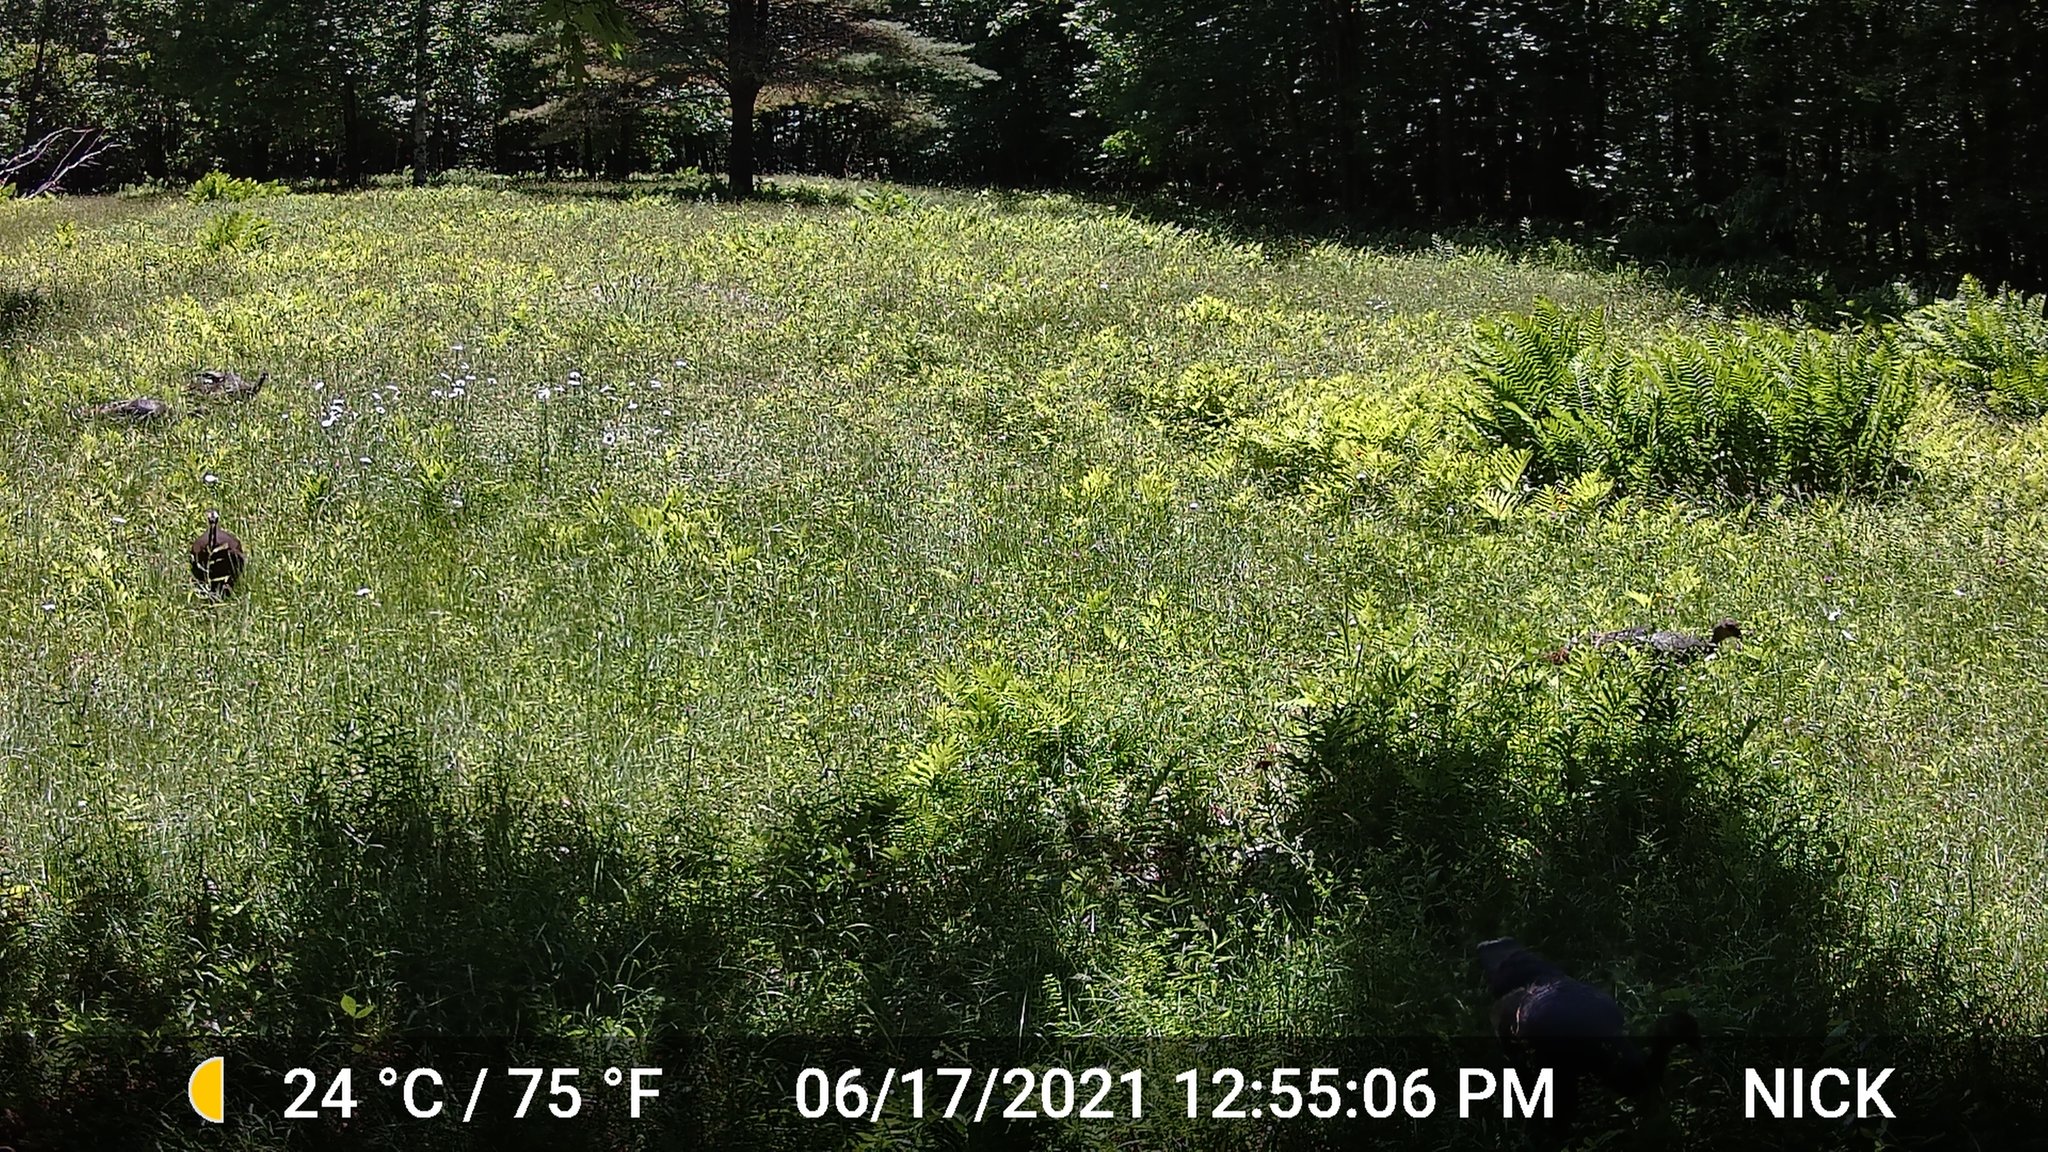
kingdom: Animalia
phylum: Chordata
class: Aves
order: Galliformes
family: Phasianidae
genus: Meleagris
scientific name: Meleagris gallopavo
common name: Wild turkey
